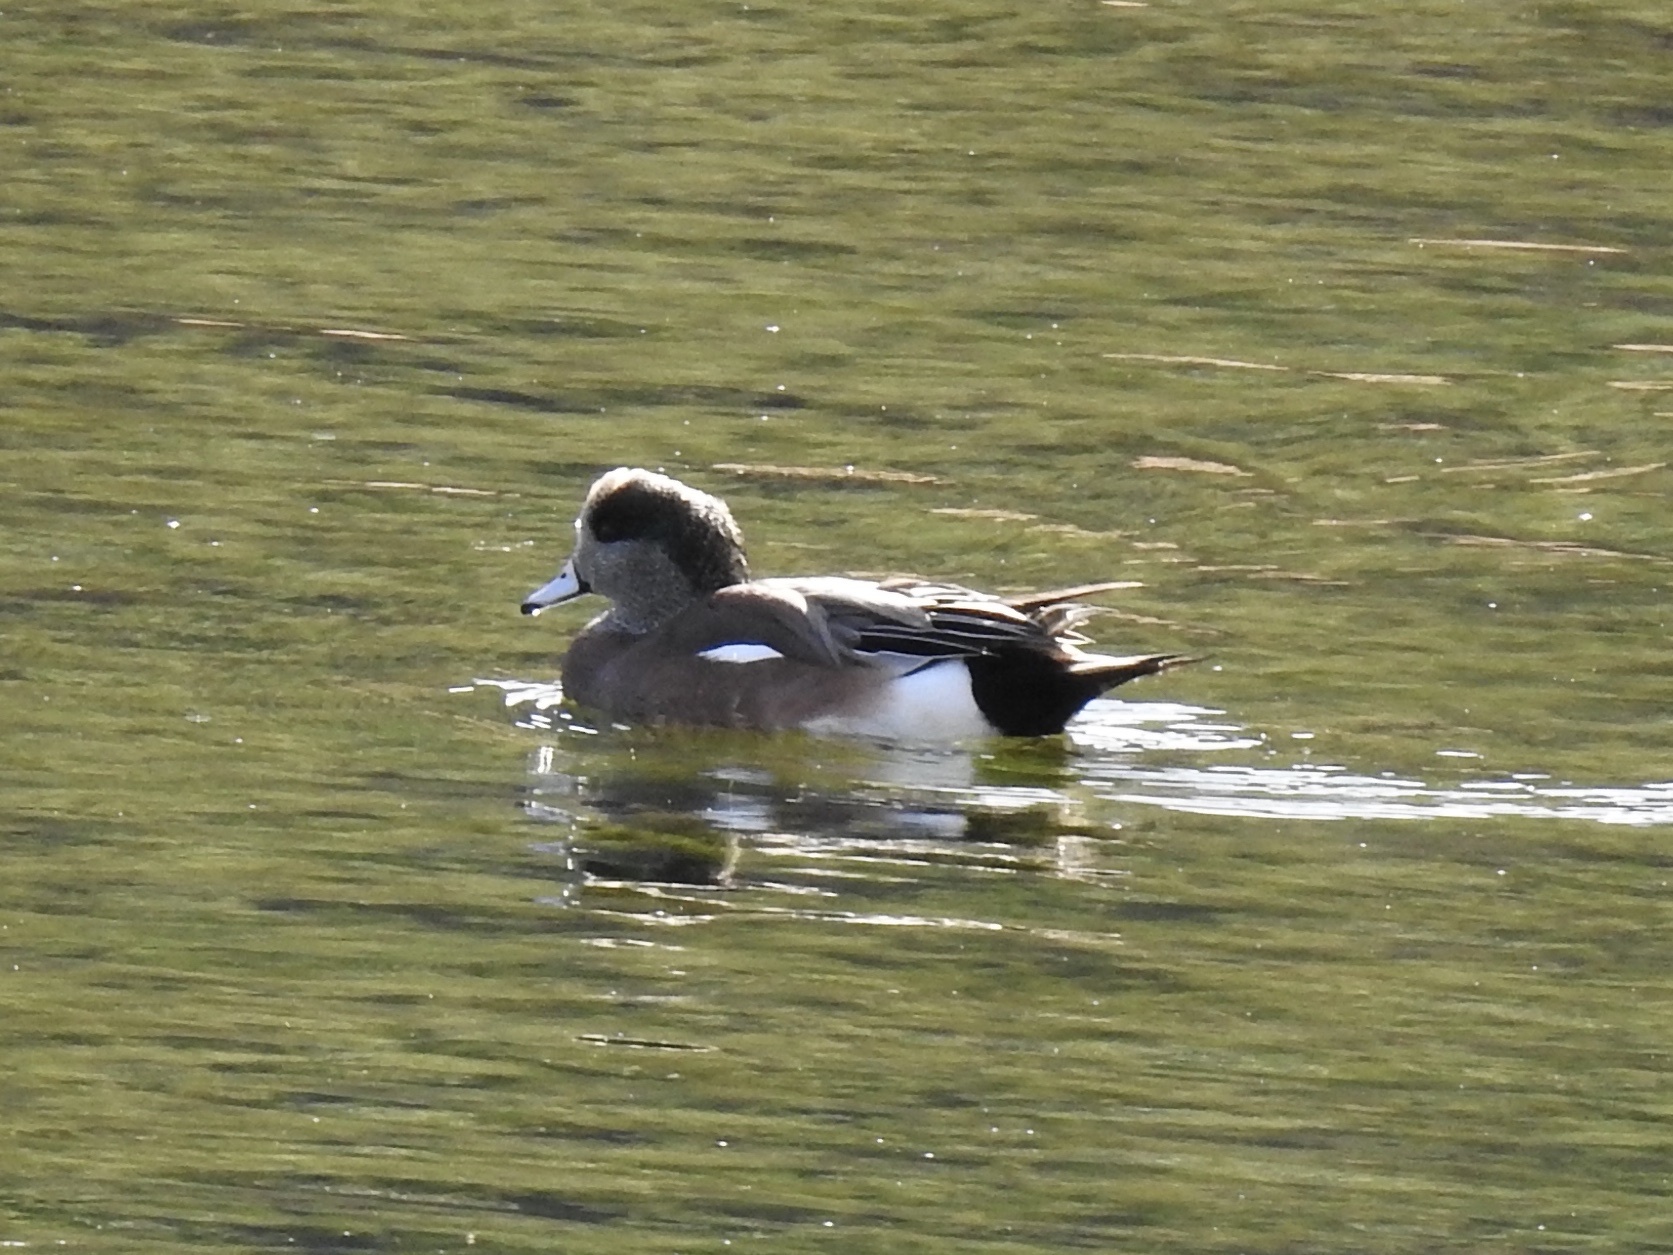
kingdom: Animalia
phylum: Chordata
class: Aves
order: Anseriformes
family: Anatidae
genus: Mareca
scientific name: Mareca americana
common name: American wigeon
